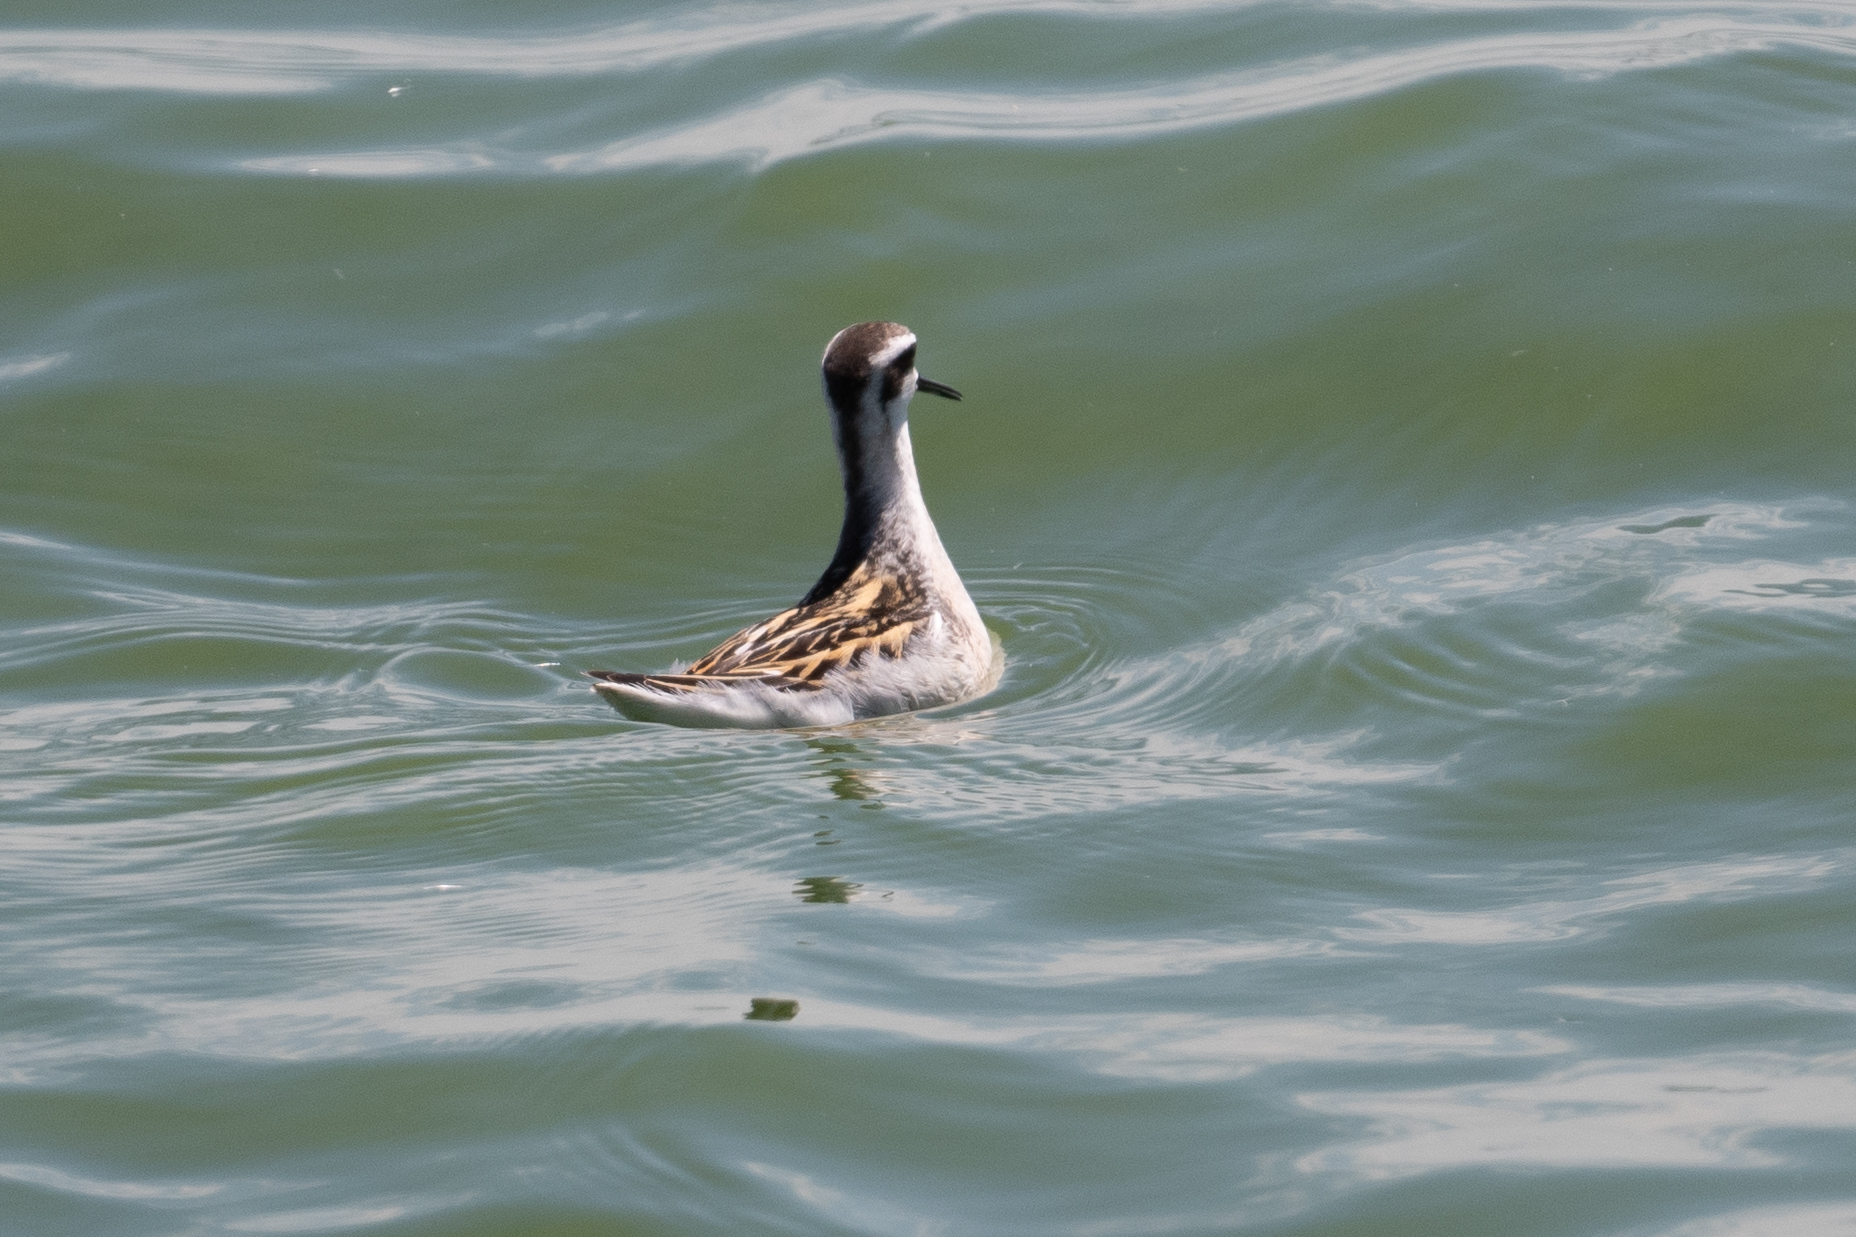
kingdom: Animalia
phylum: Chordata
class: Aves
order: Charadriiformes
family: Scolopacidae
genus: Phalaropus
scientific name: Phalaropus lobatus
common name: Red-necked phalarope
